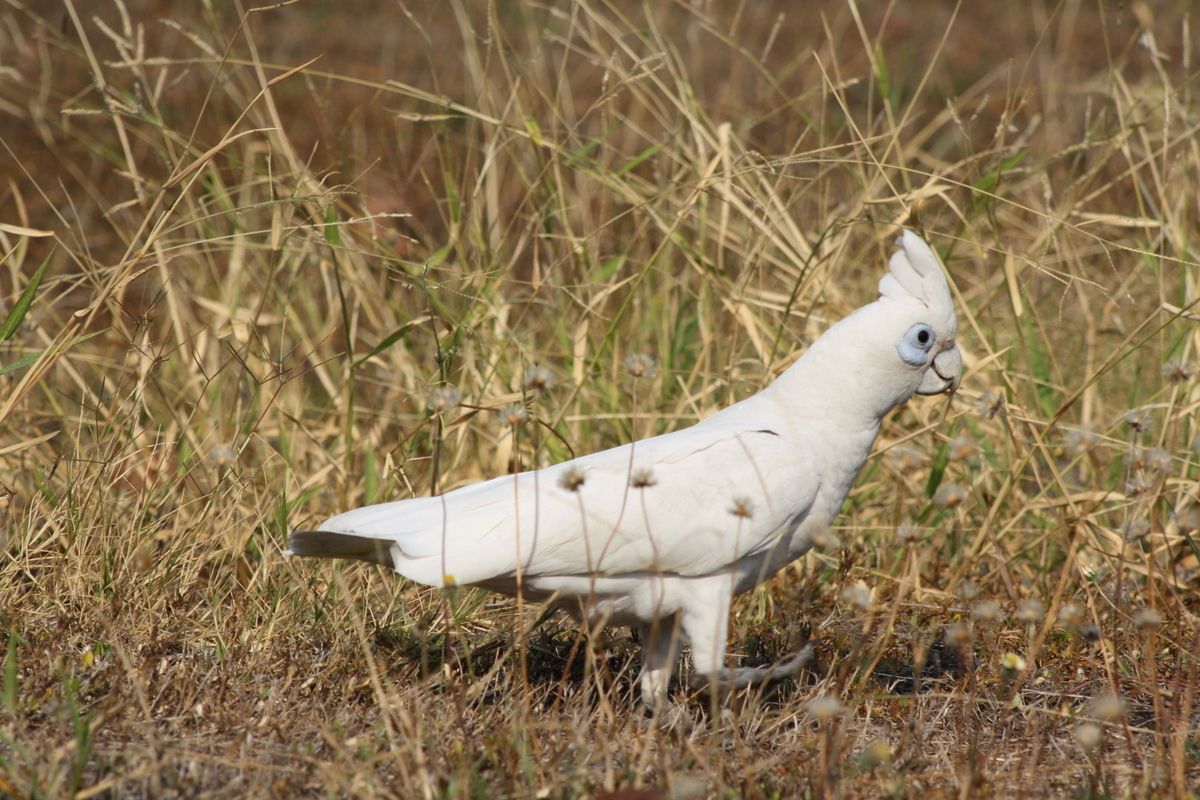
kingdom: Animalia
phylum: Chordata
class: Aves
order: Psittaciformes
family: Psittacidae
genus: Cacatua
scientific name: Cacatua sanguinea
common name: Little corella
